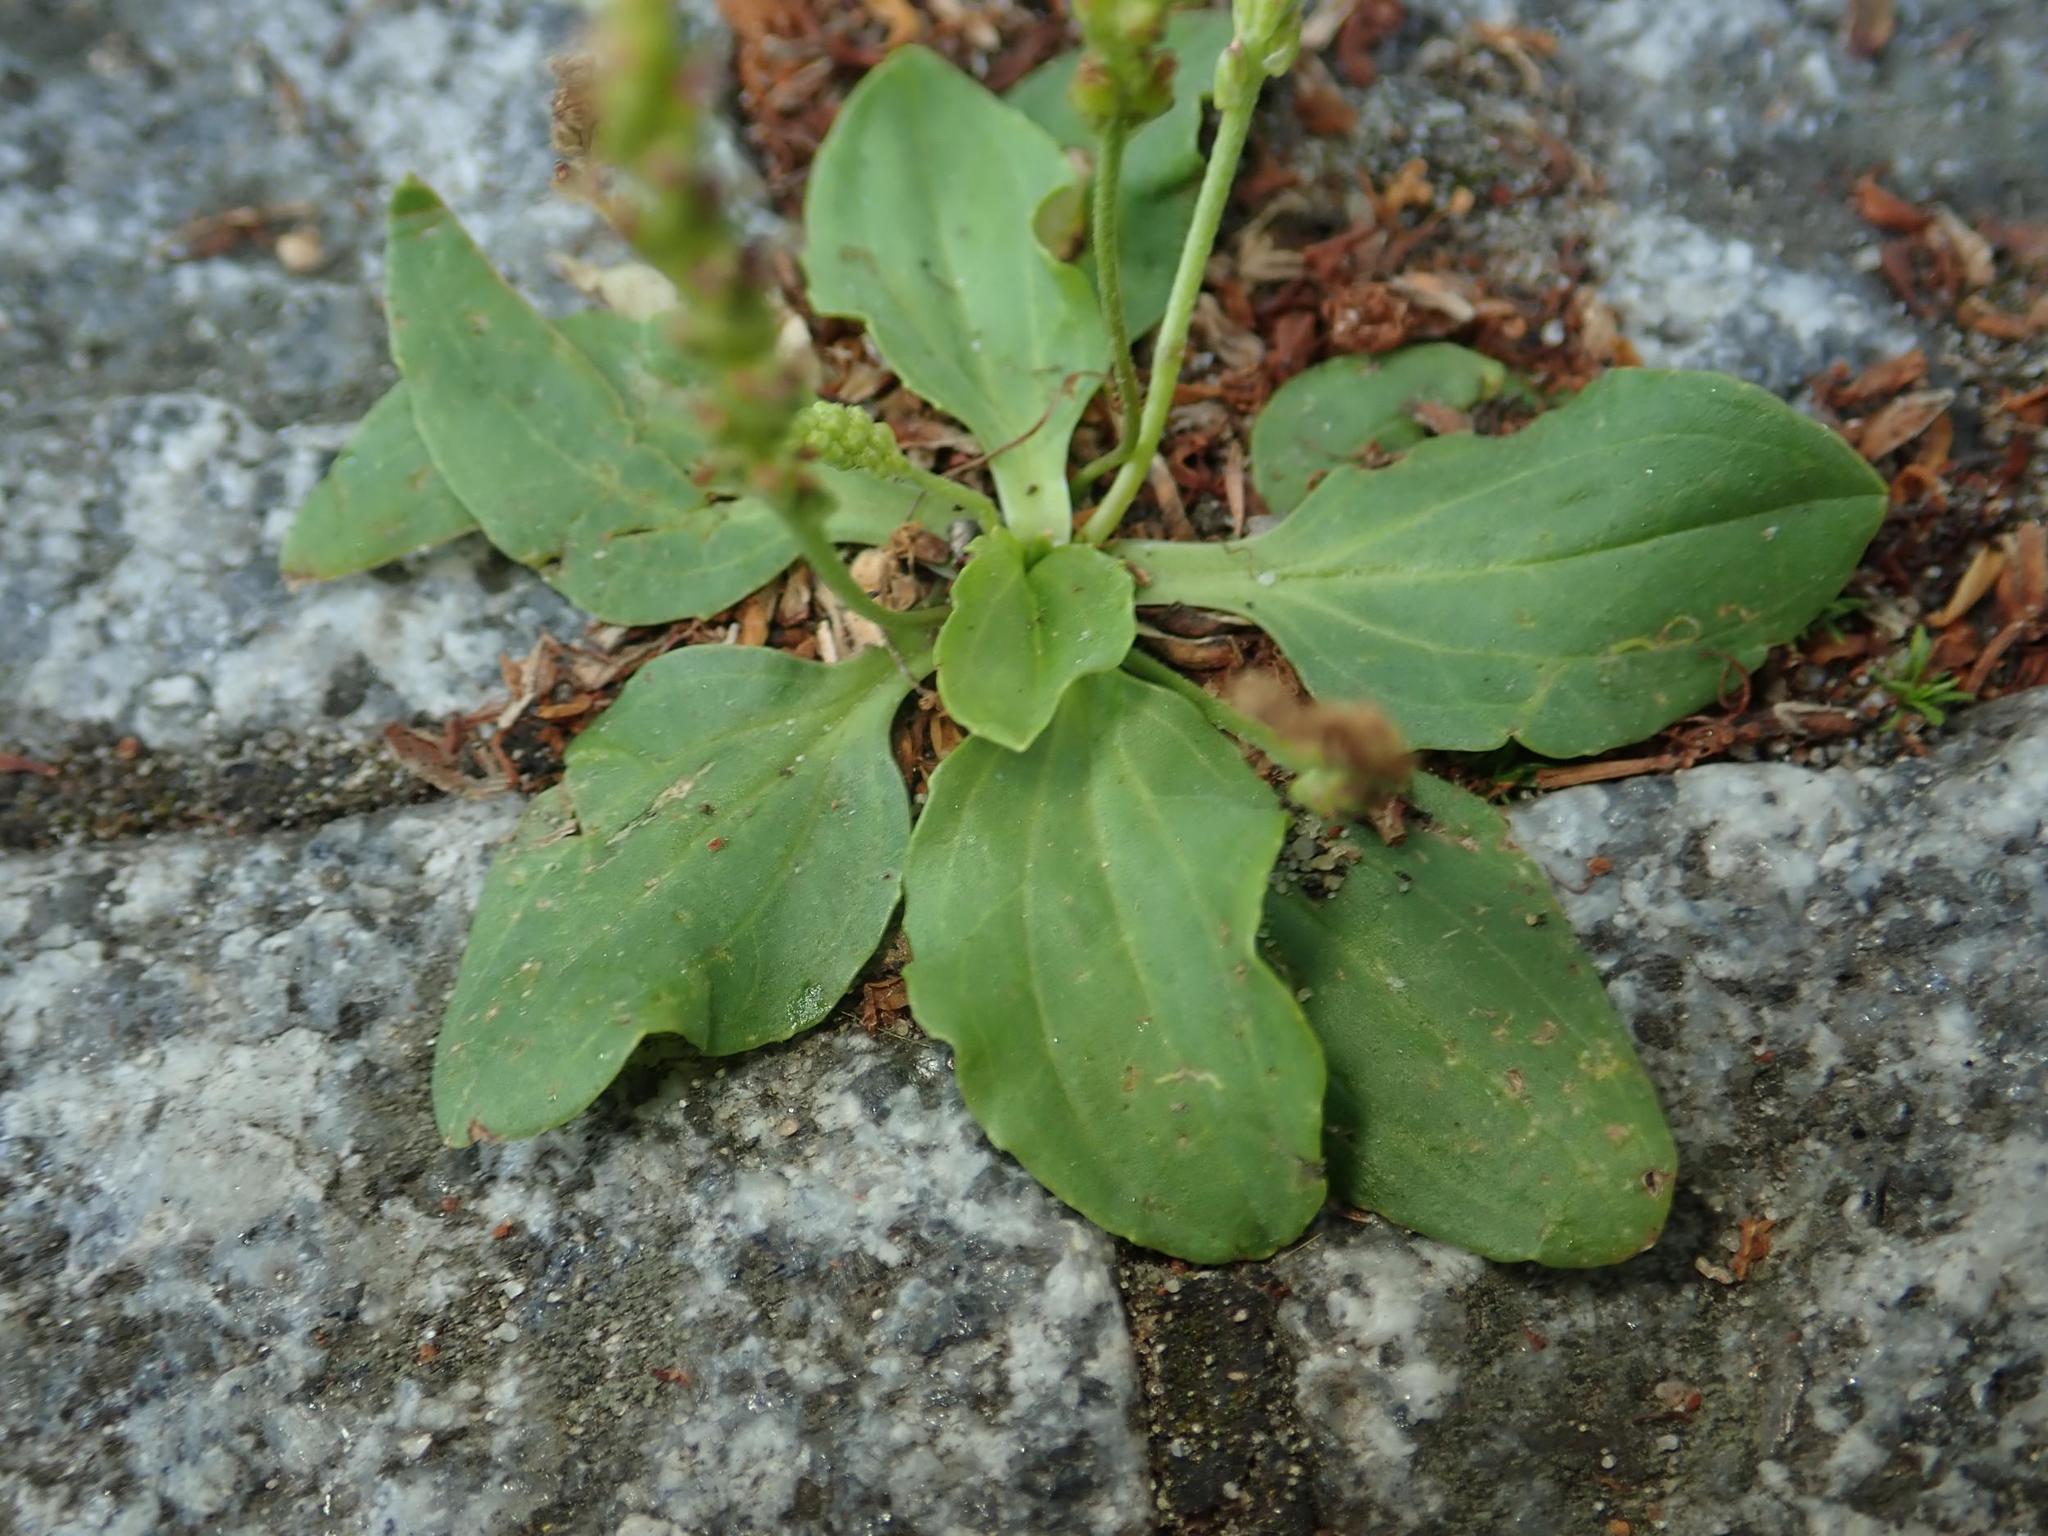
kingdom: Plantae
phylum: Tracheophyta
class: Magnoliopsida
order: Lamiales
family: Plantaginaceae
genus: Plantago
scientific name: Plantago major
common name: Common plantain
